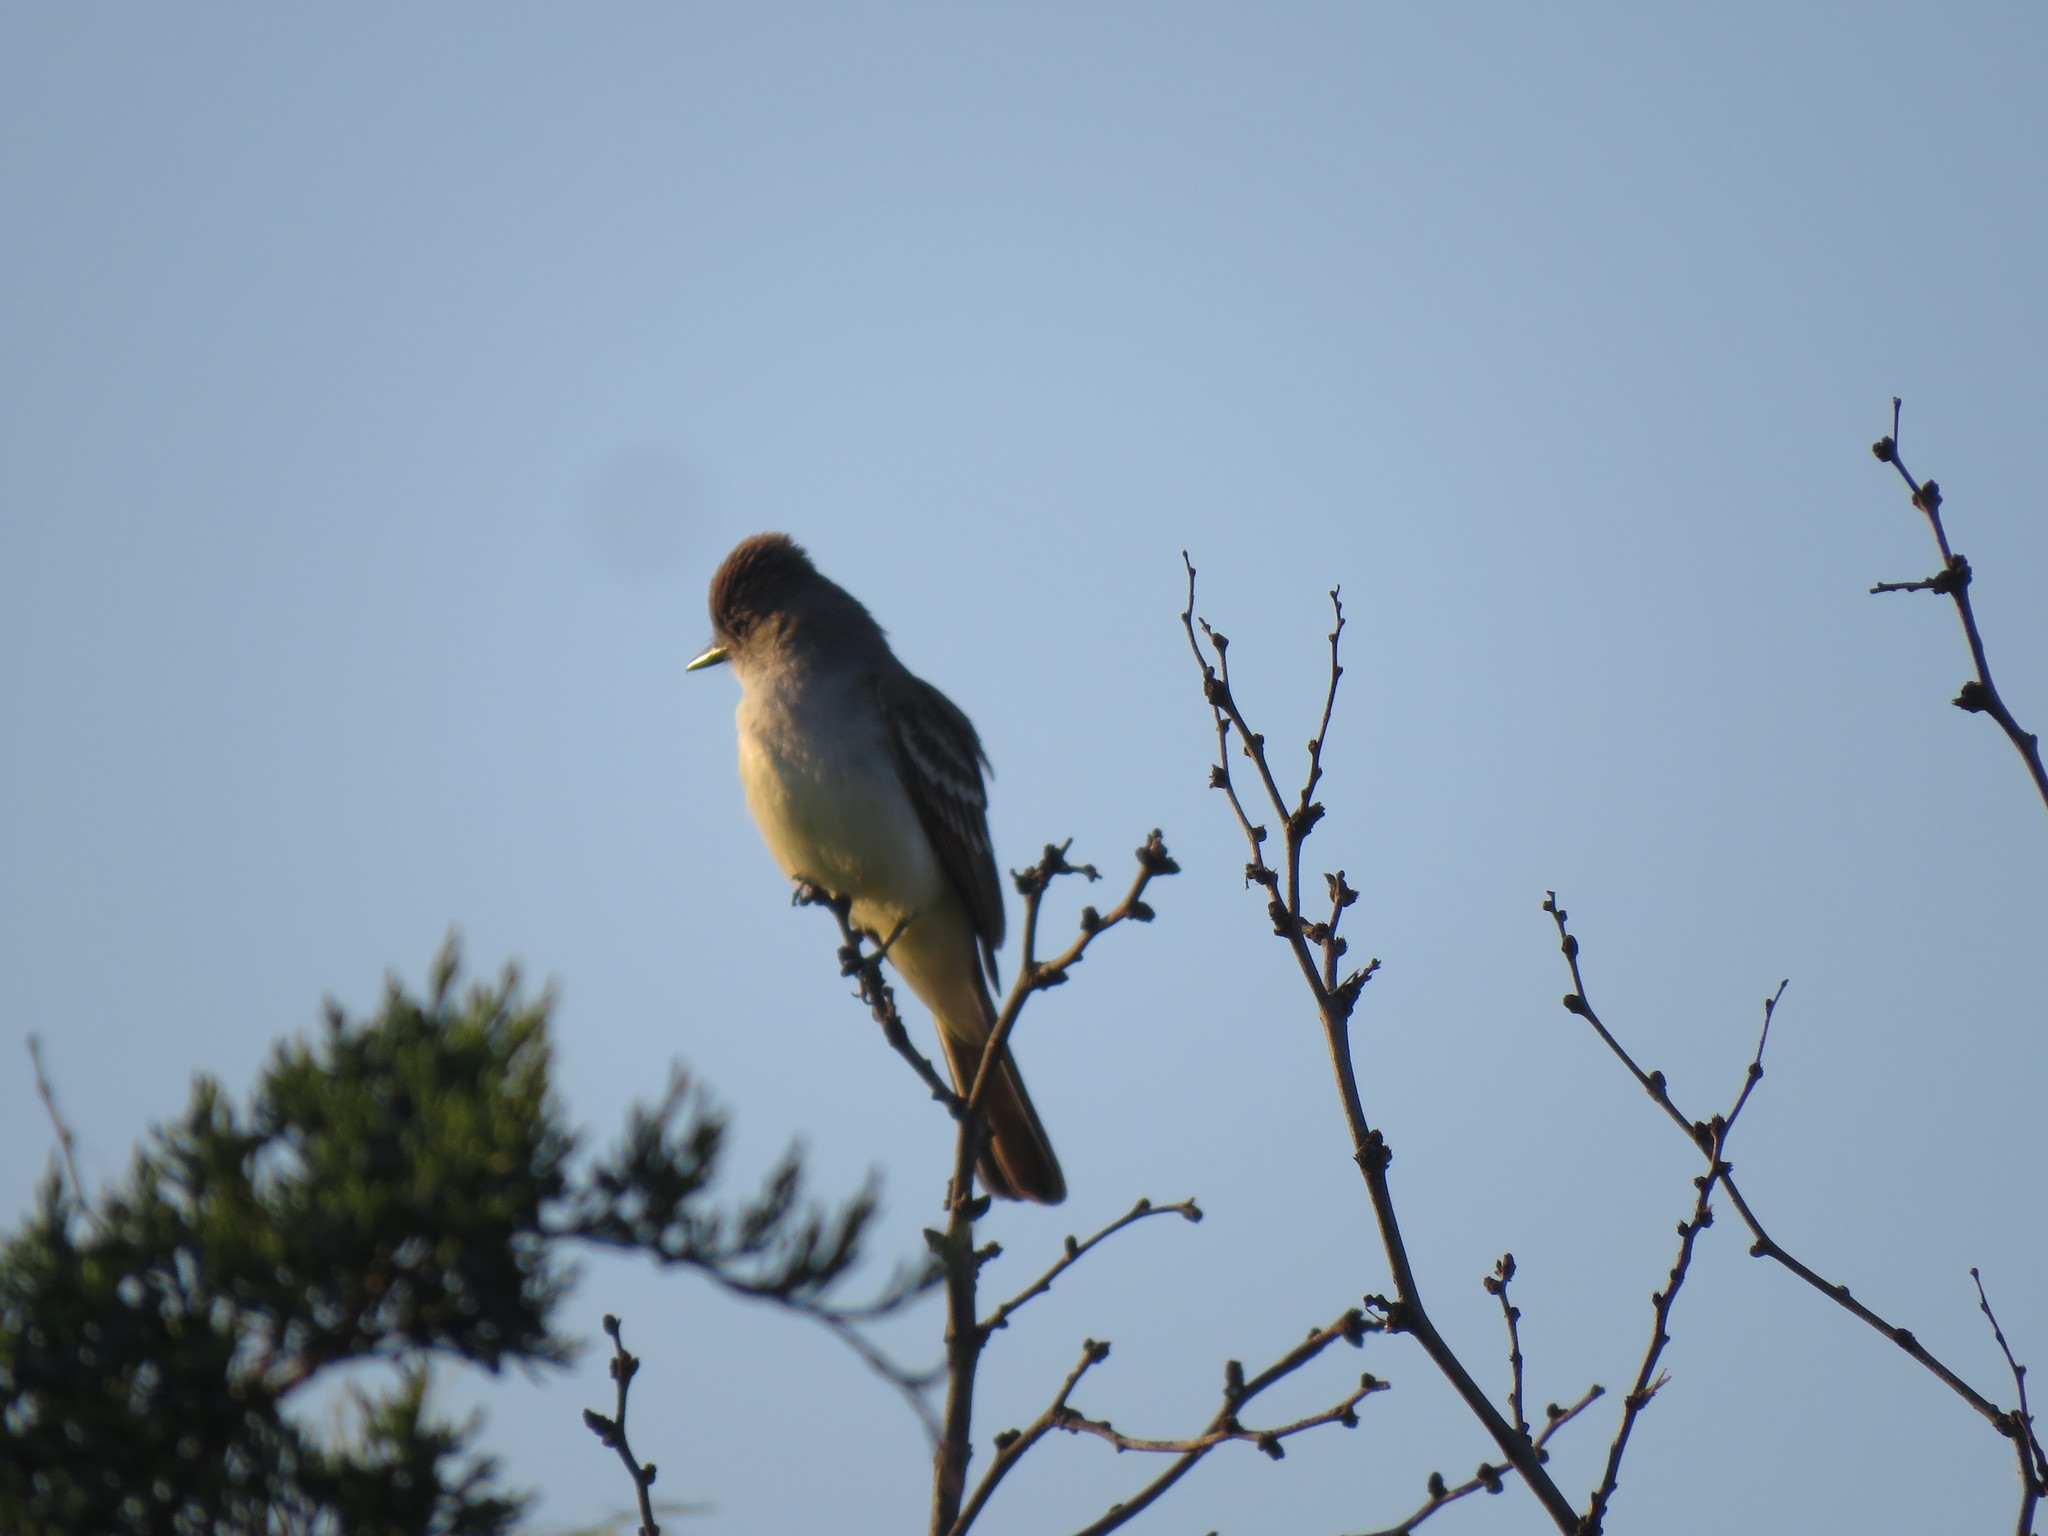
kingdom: Animalia
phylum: Chordata
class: Aves
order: Passeriformes
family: Tyrannidae
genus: Myiarchus
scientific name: Myiarchus cinerascens
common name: Ash-throated flycatcher
